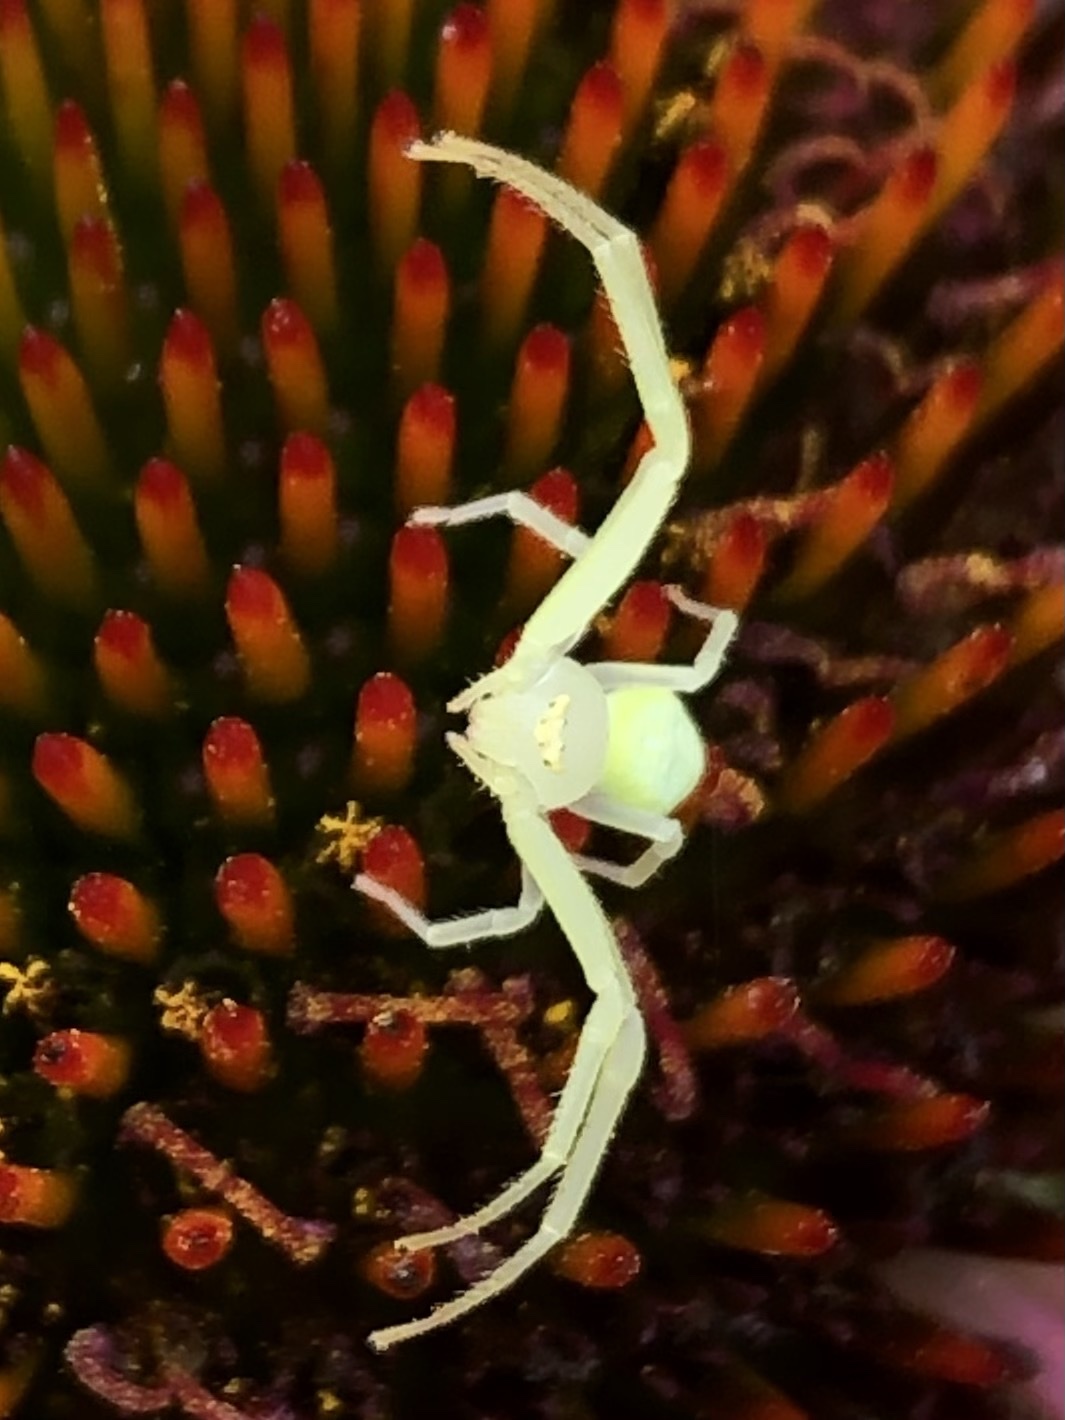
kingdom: Animalia
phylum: Arthropoda
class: Arachnida
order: Araneae
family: Thomisidae
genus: Misumessus
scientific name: Misumessus oblongus
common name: American green crab spider
